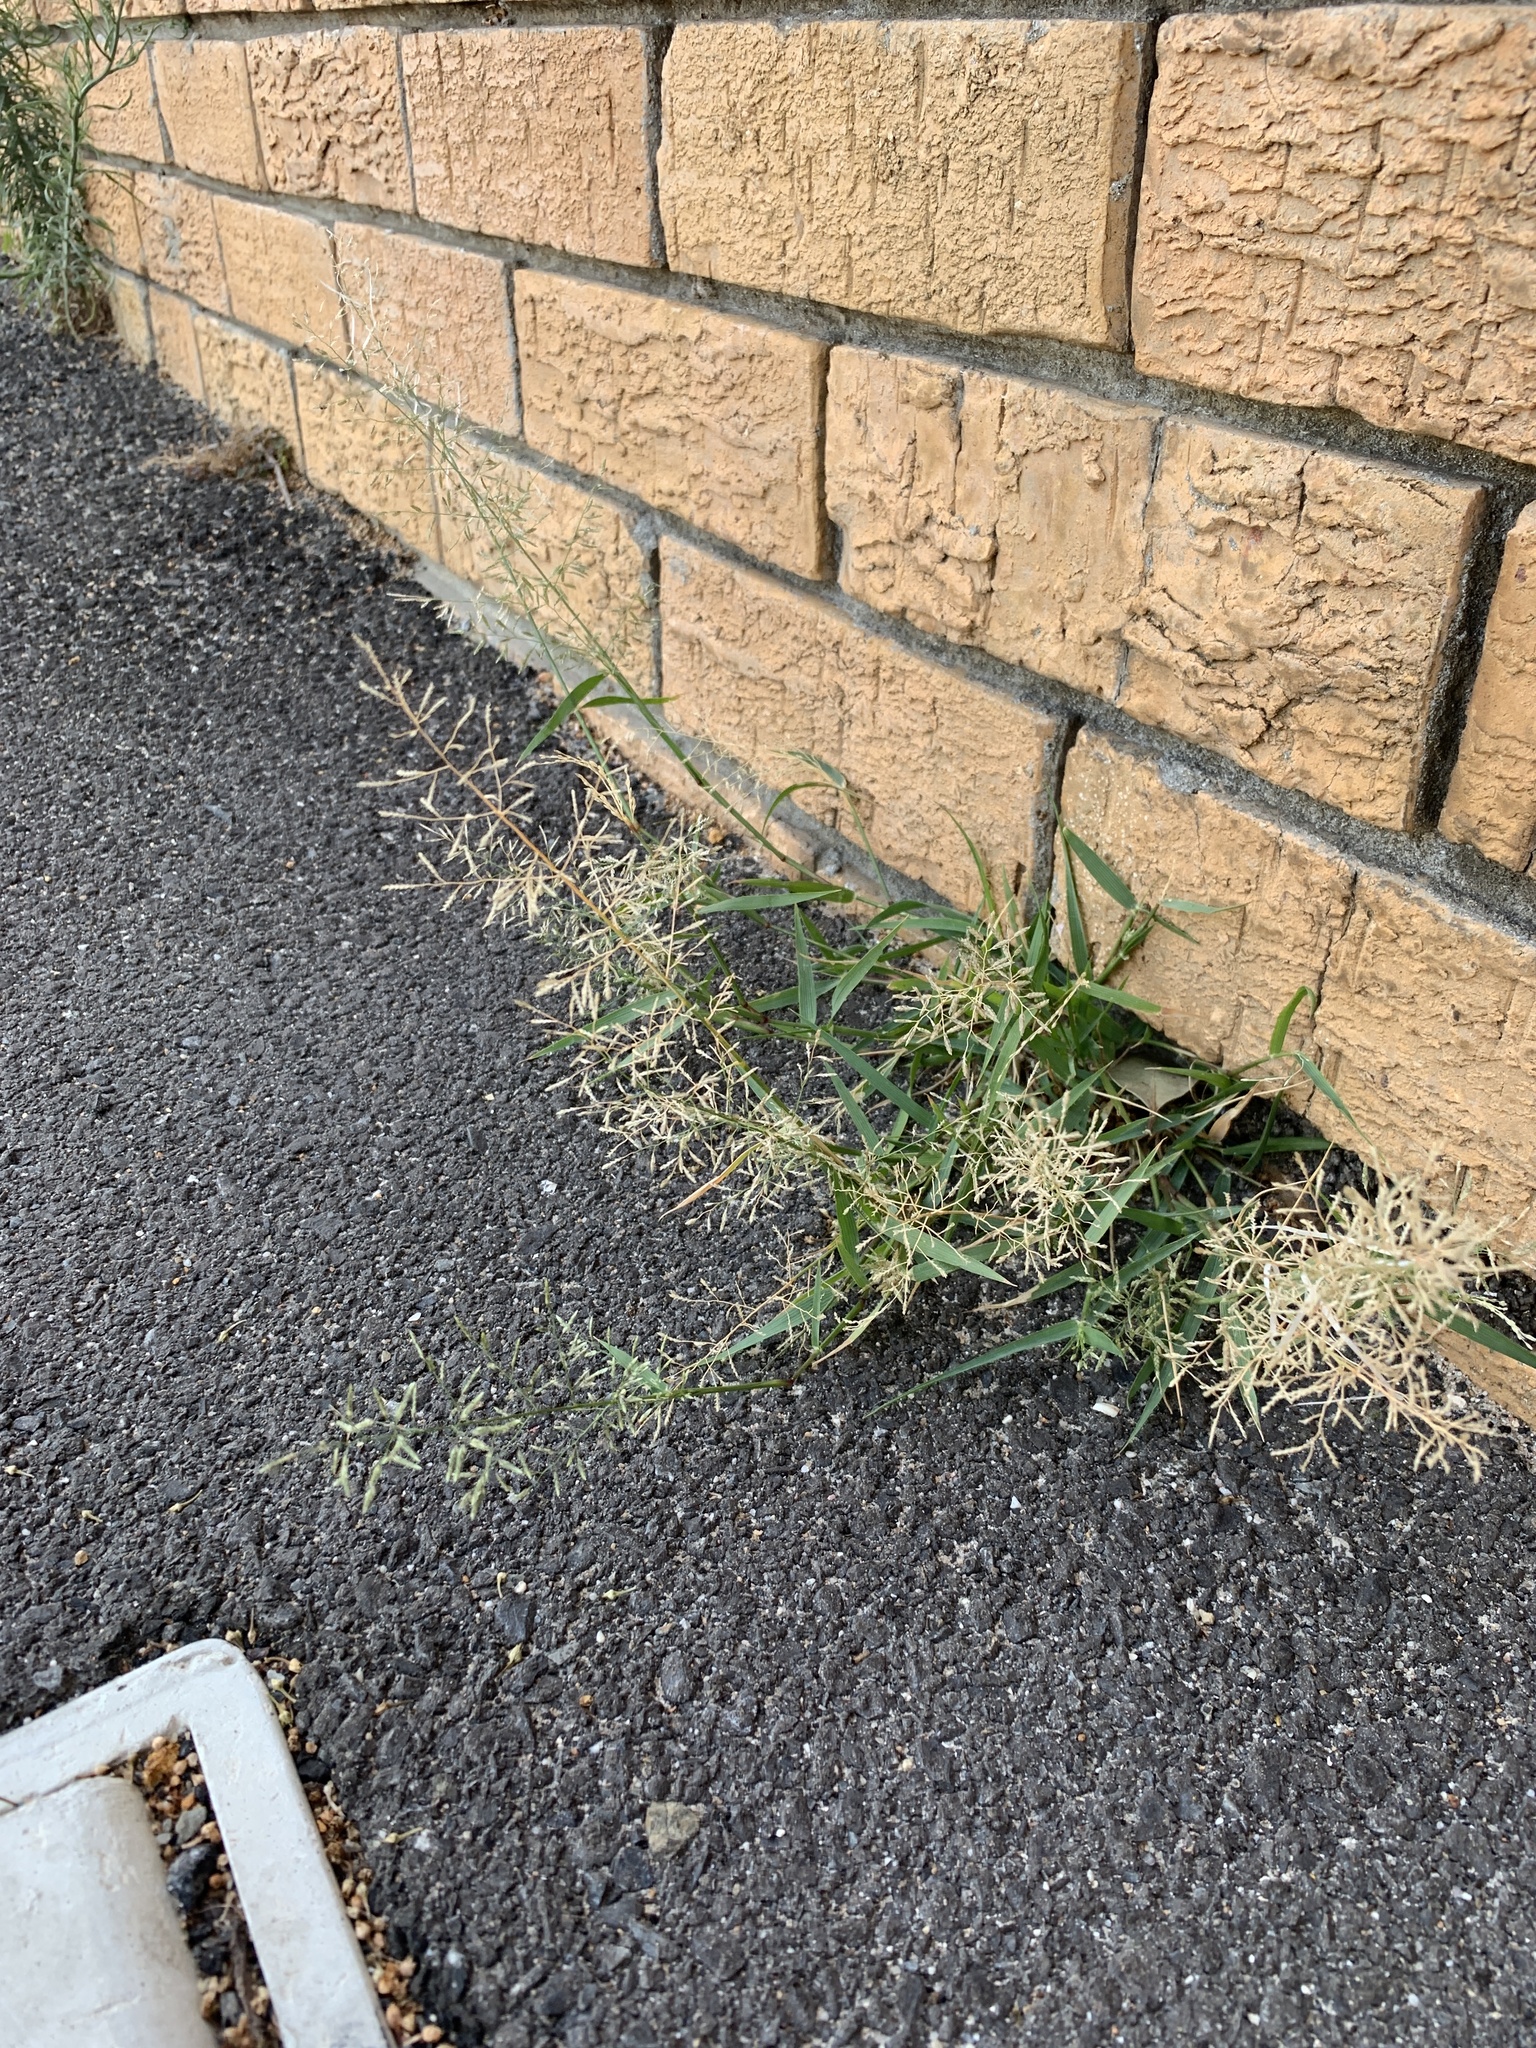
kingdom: Plantae
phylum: Tracheophyta
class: Liliopsida
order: Poales
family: Poaceae
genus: Eragrostis
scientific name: Eragrostis minor
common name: Small love-grass
